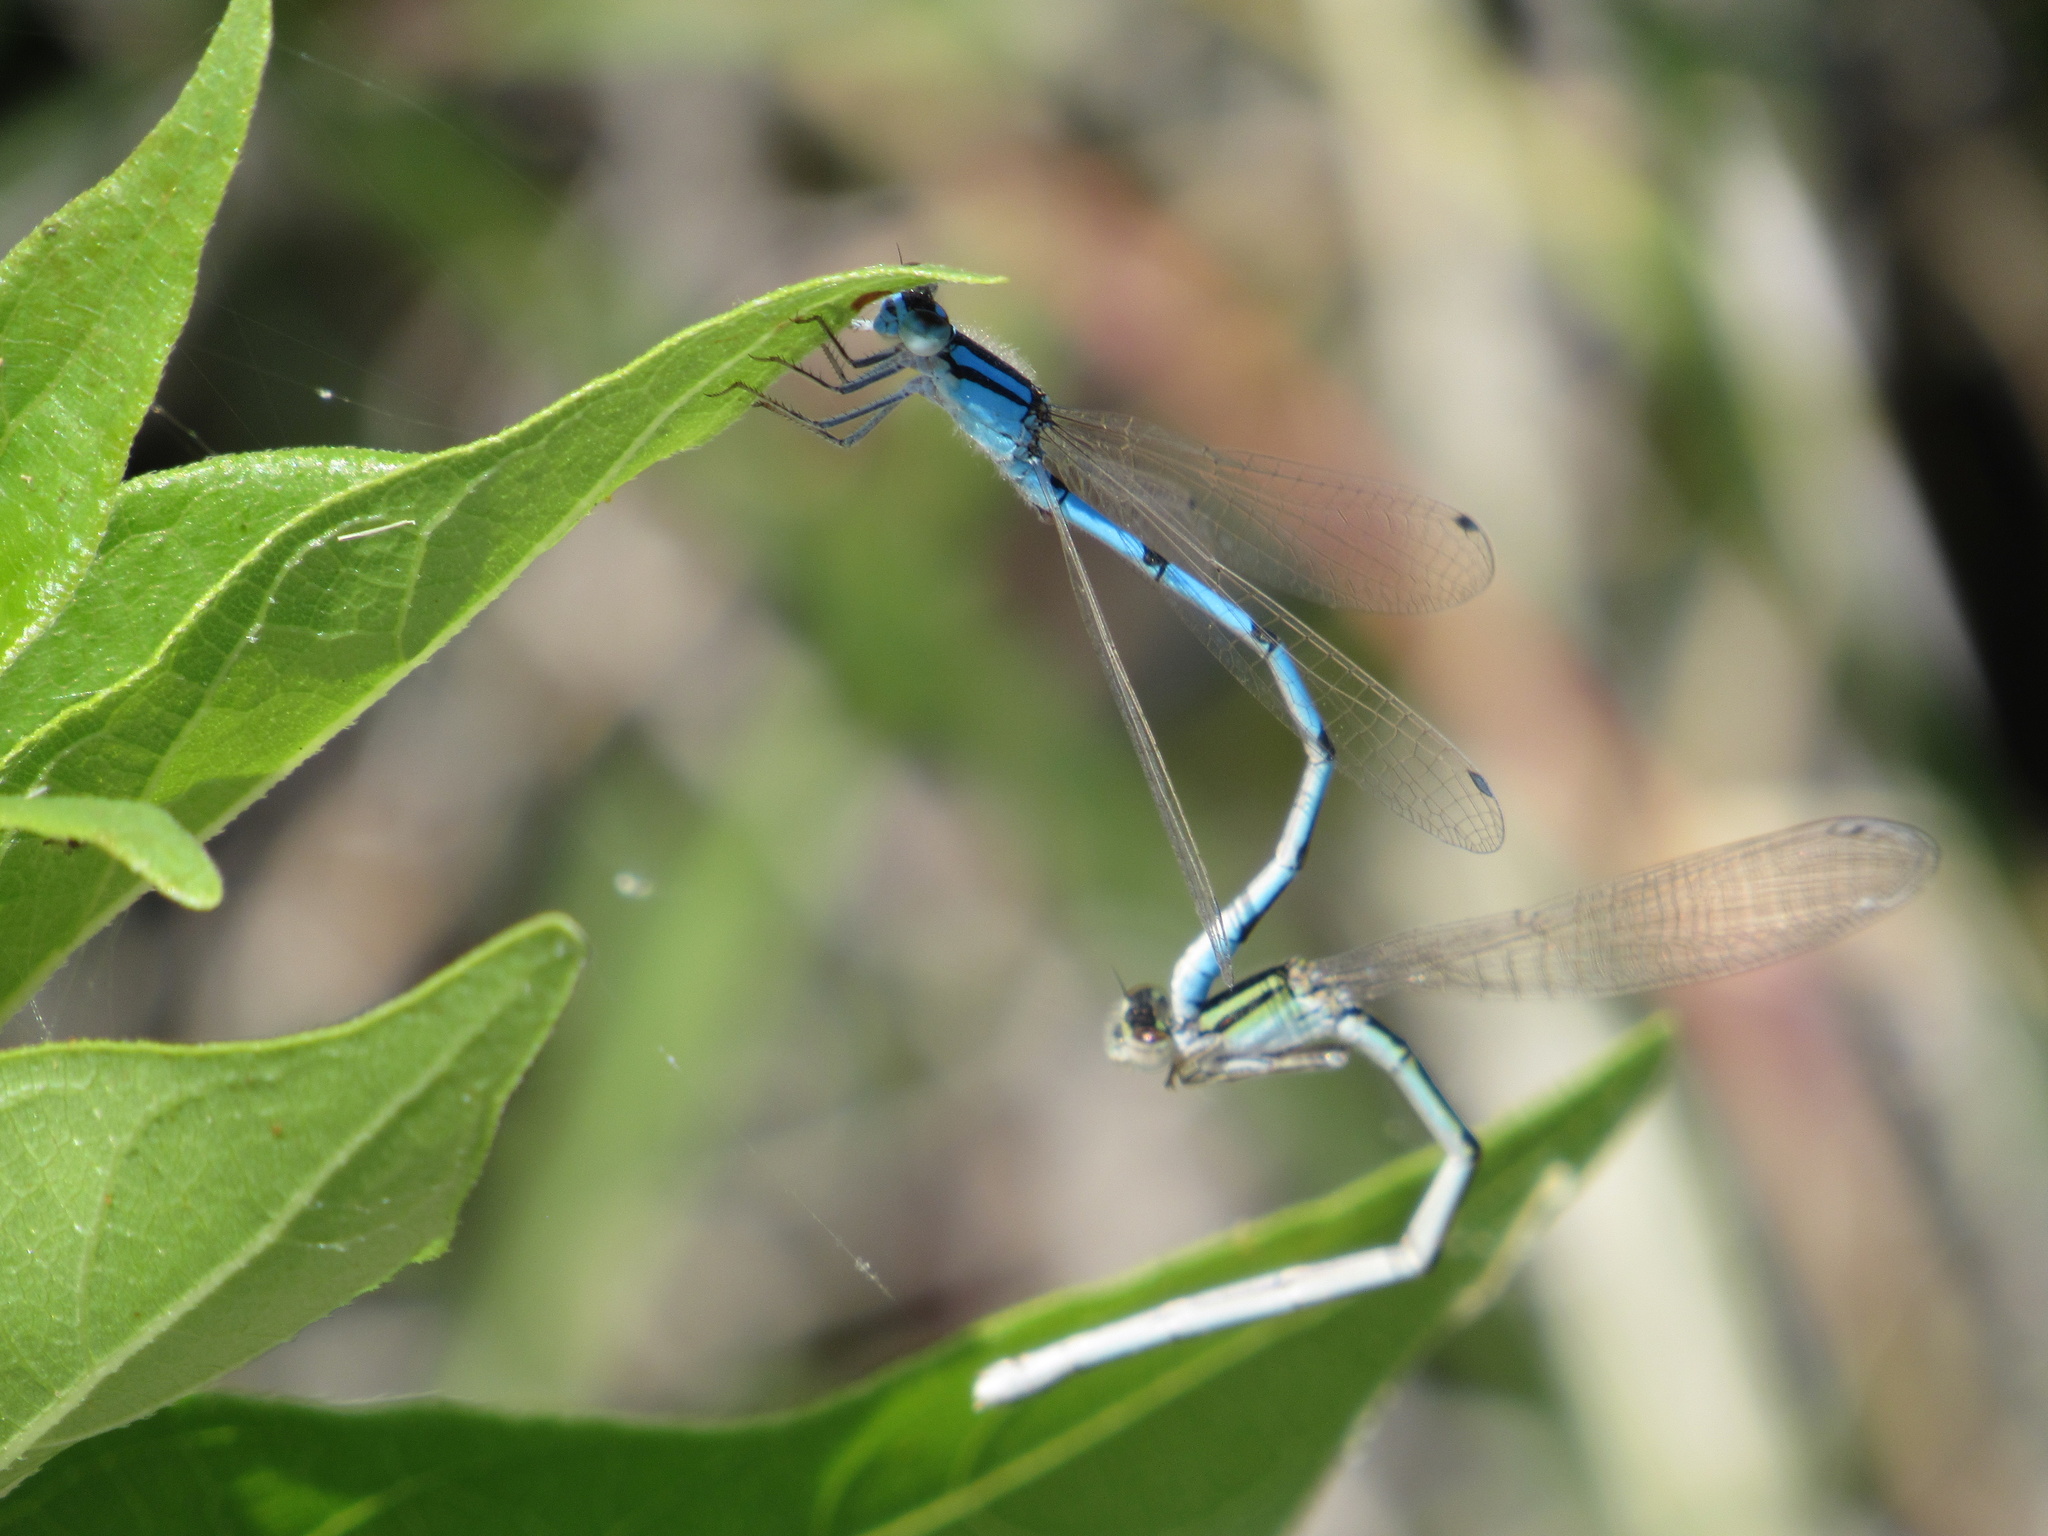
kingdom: Animalia
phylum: Arthropoda
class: Insecta
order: Odonata
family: Coenagrionidae
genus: Enallagma
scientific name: Enallagma civile
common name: Damselfly
